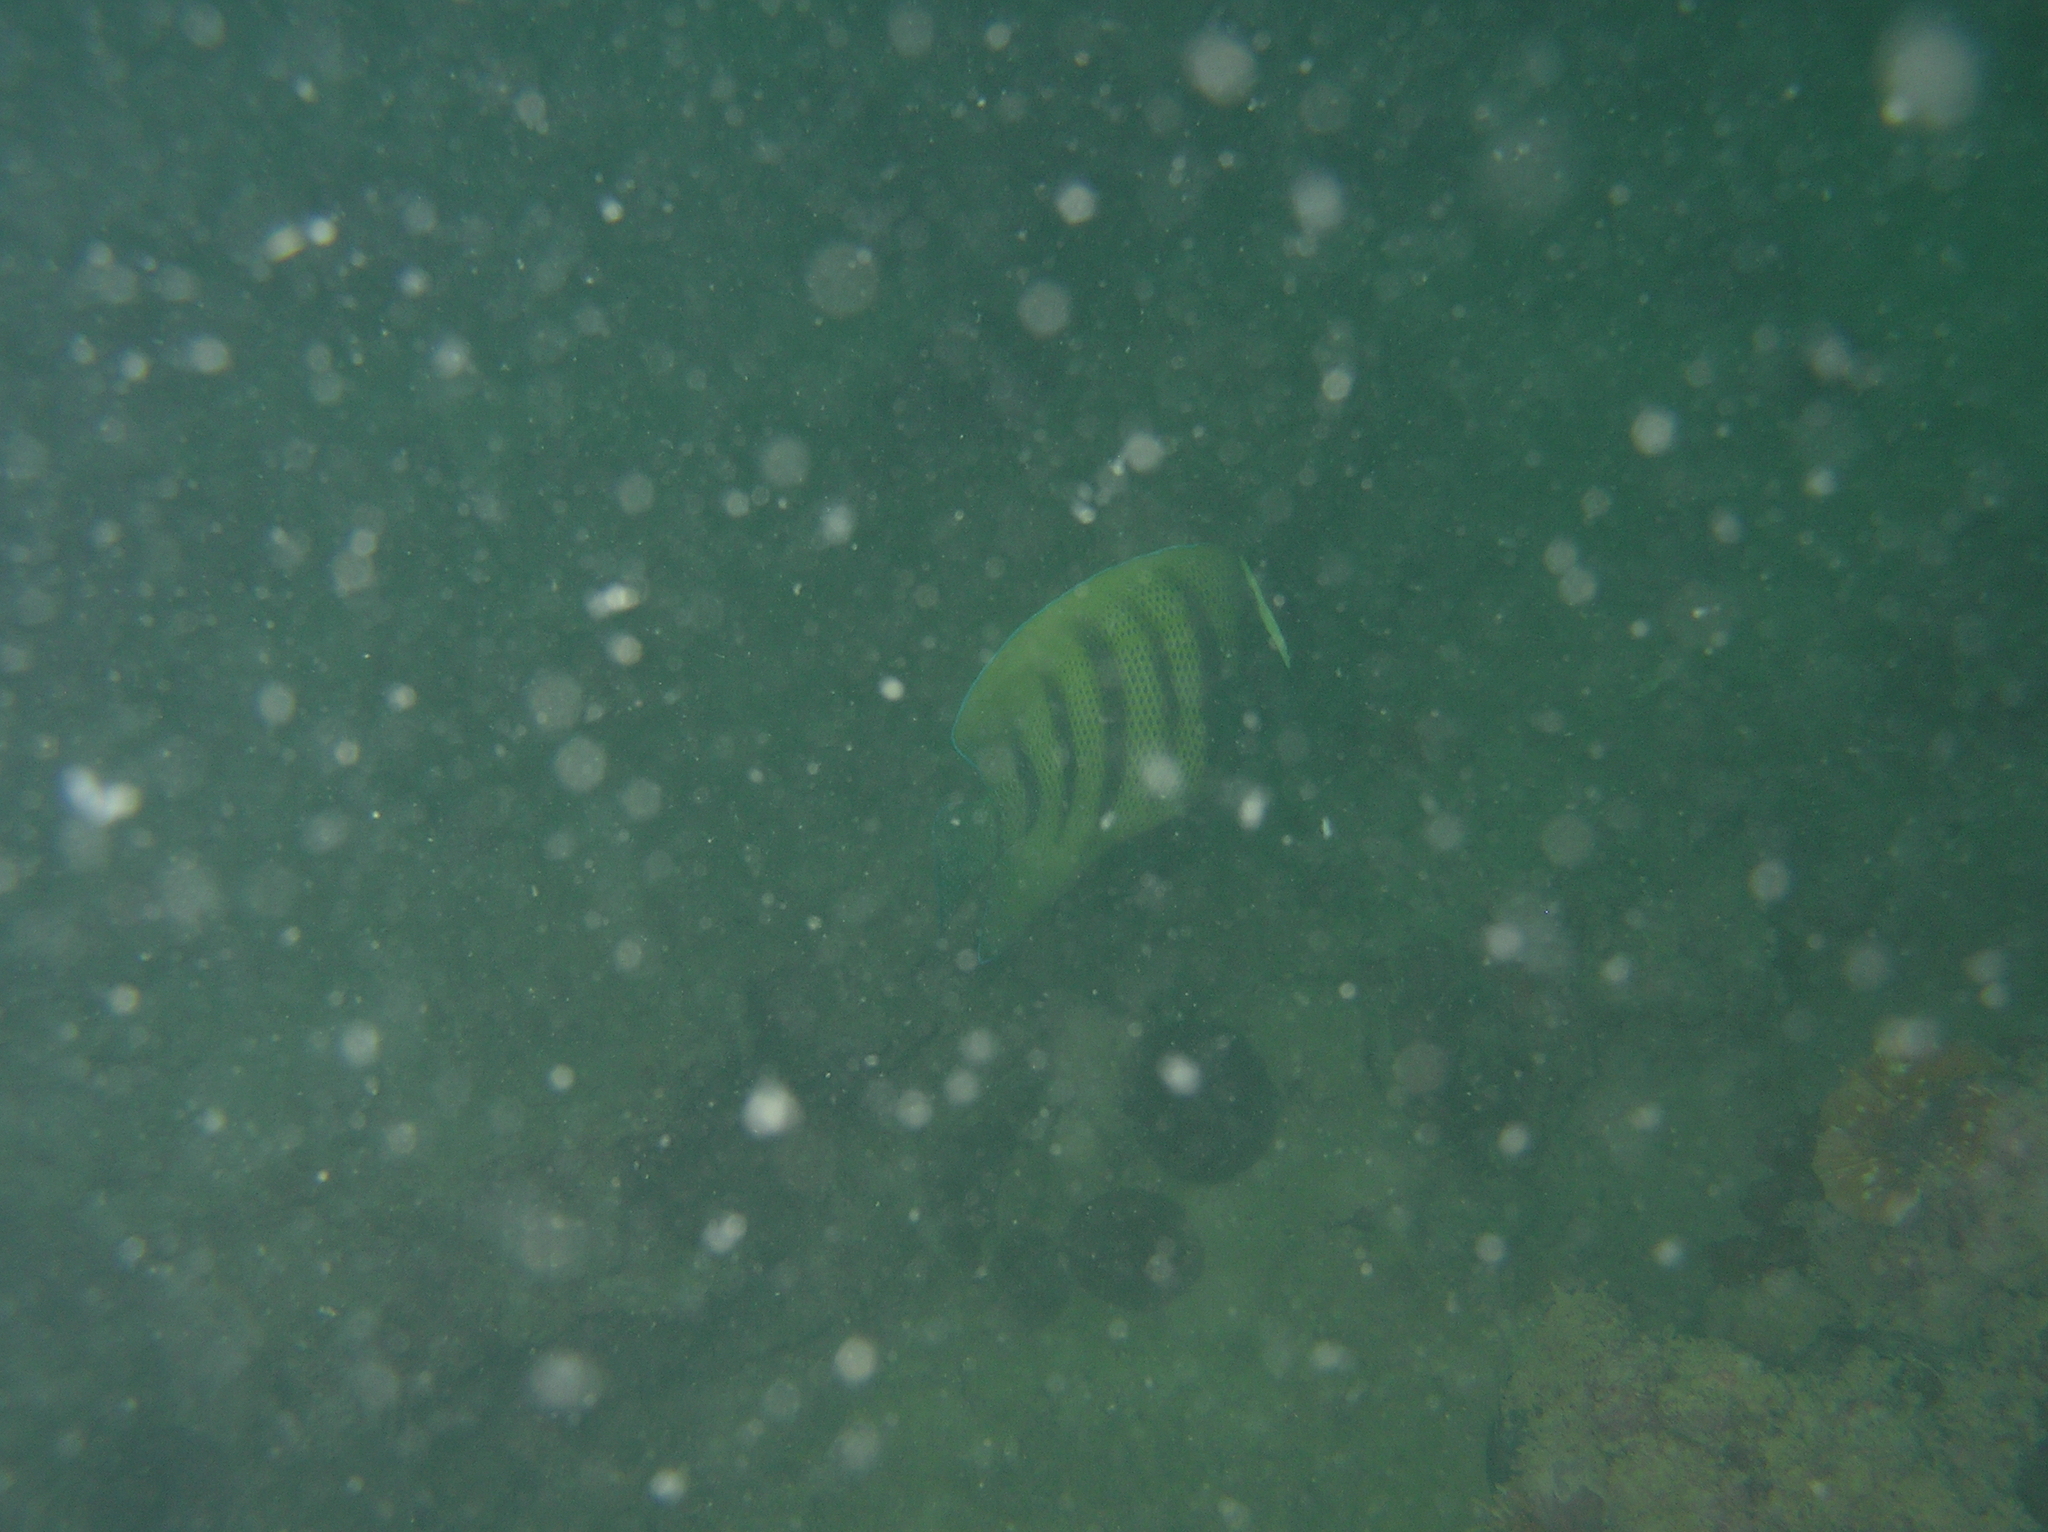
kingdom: Animalia
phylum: Chordata
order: Perciformes
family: Pomacanthidae
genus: Pomacanthus
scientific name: Pomacanthus sexstriatus
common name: Six-banded angelfish
